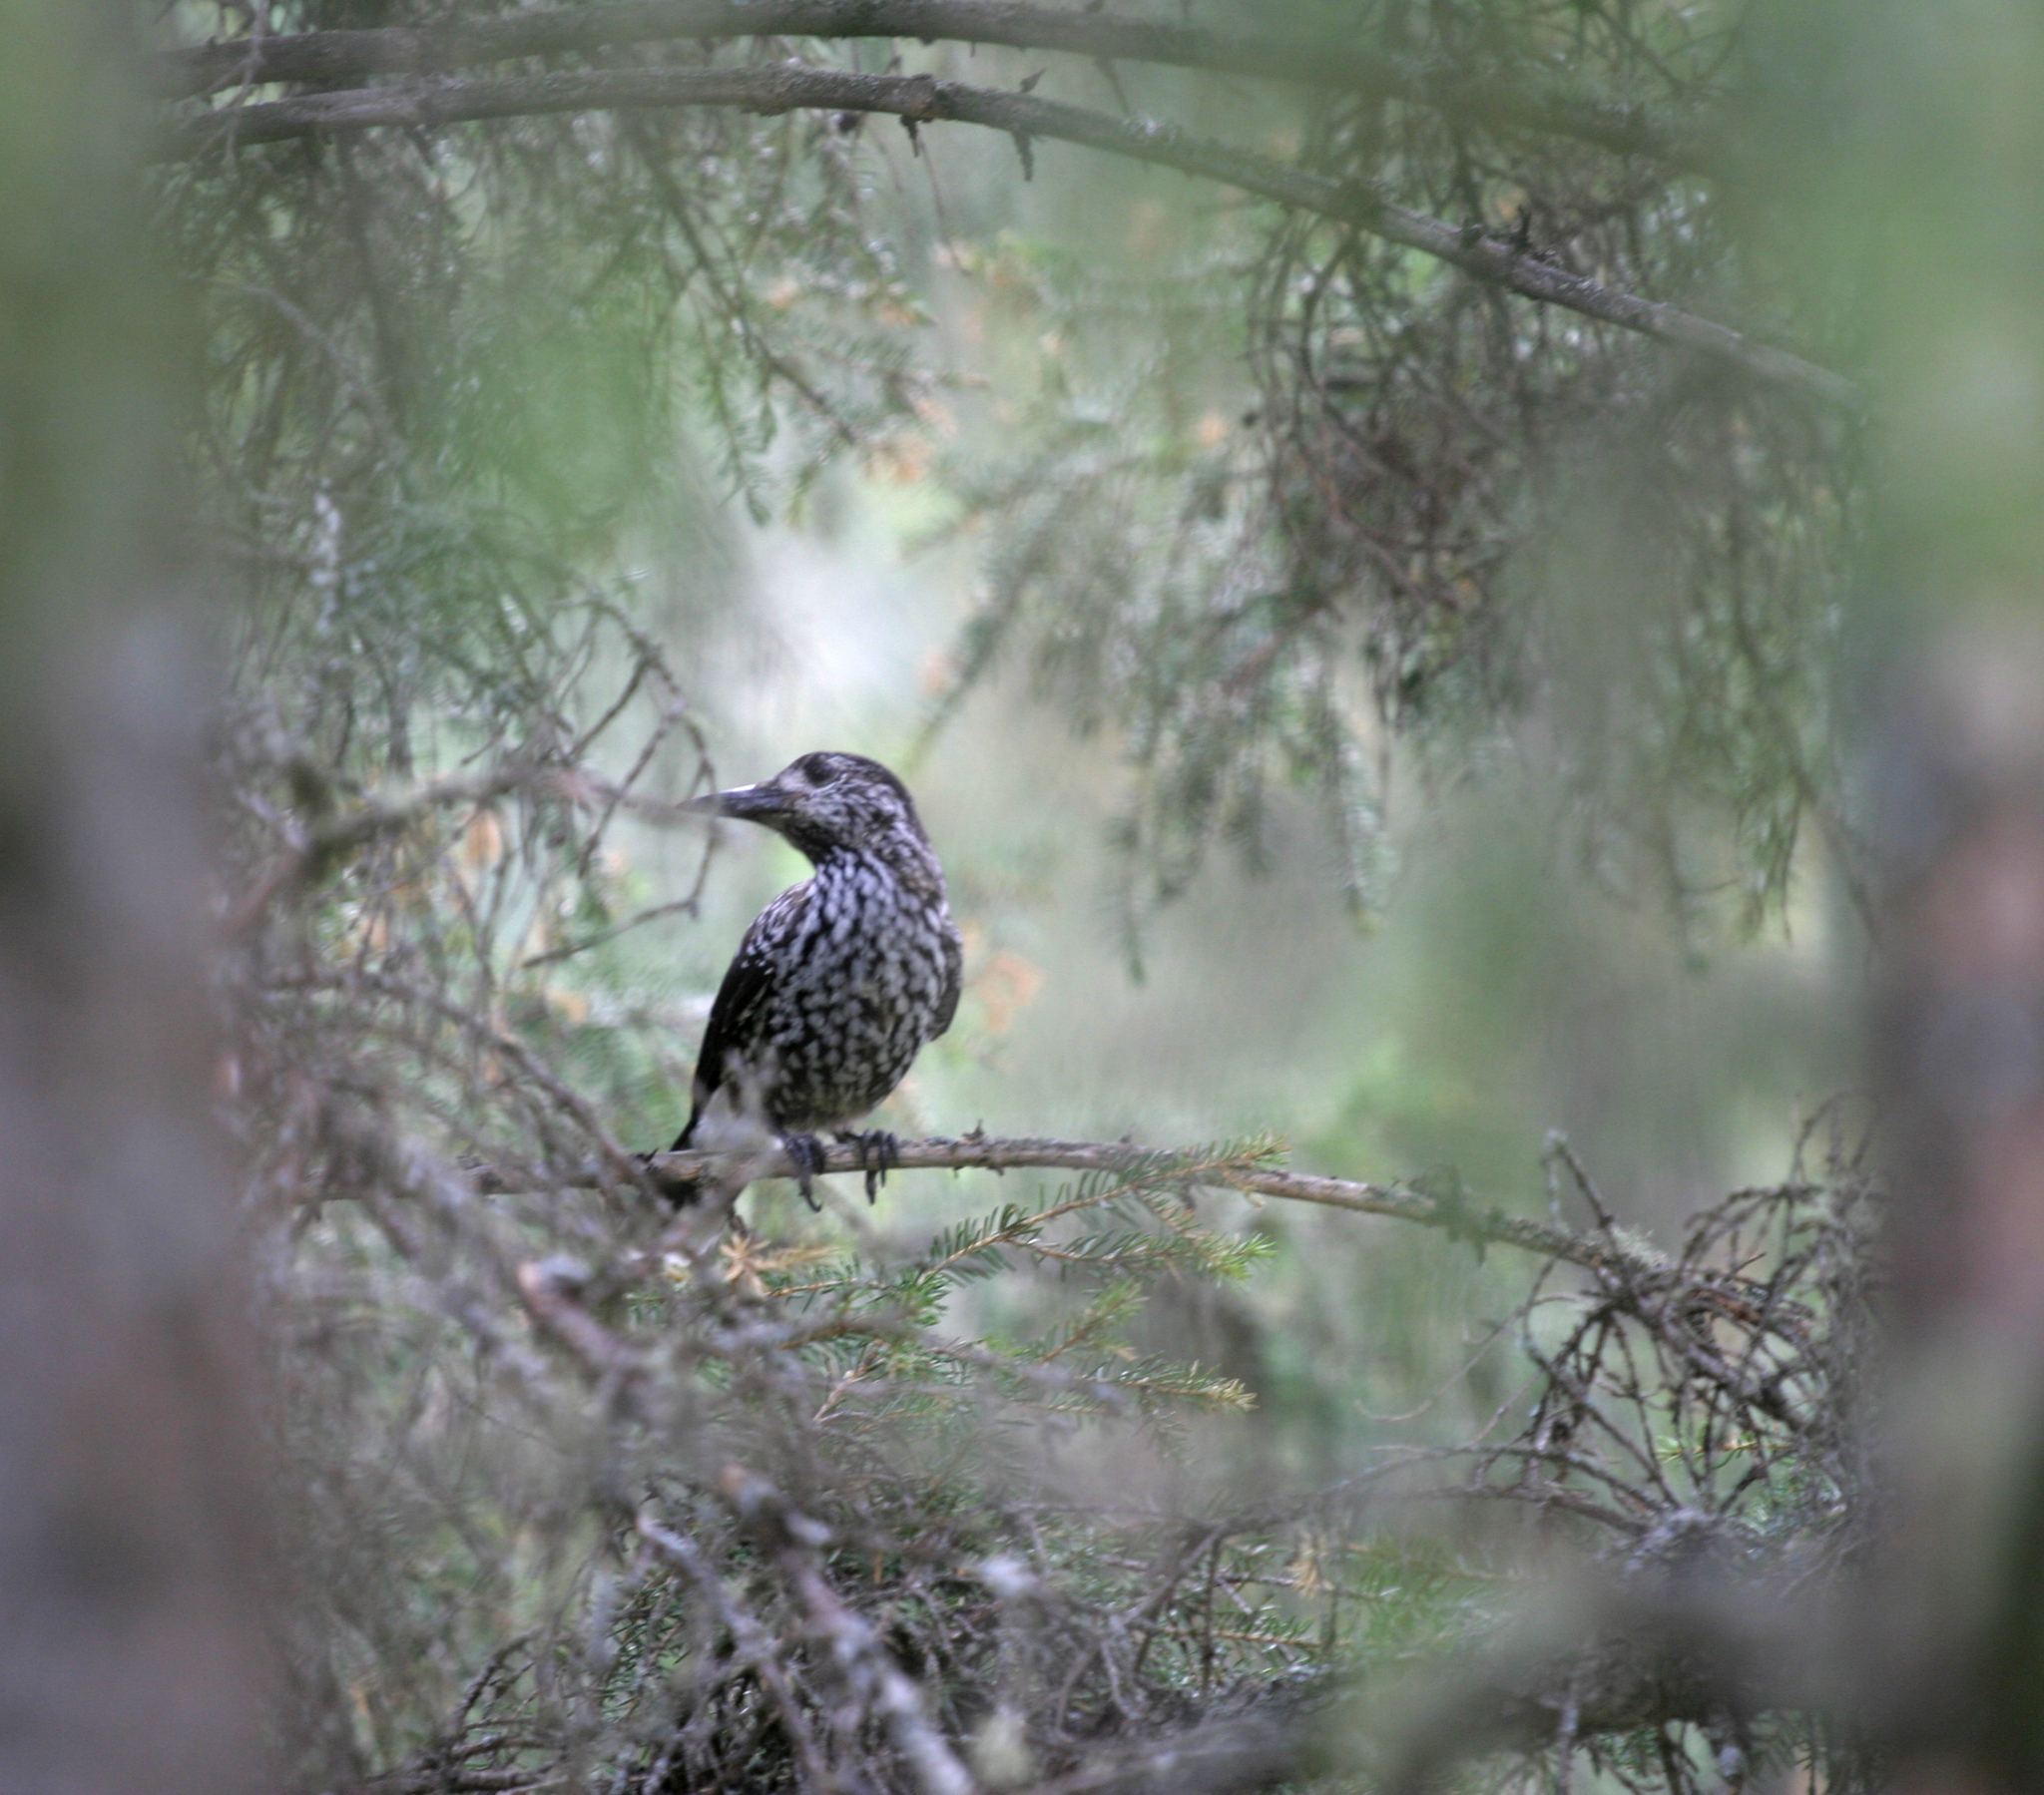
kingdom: Animalia
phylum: Chordata
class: Aves
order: Passeriformes
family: Corvidae
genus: Nucifraga
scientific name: Nucifraga caryocatactes
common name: Spotted nutcracker
